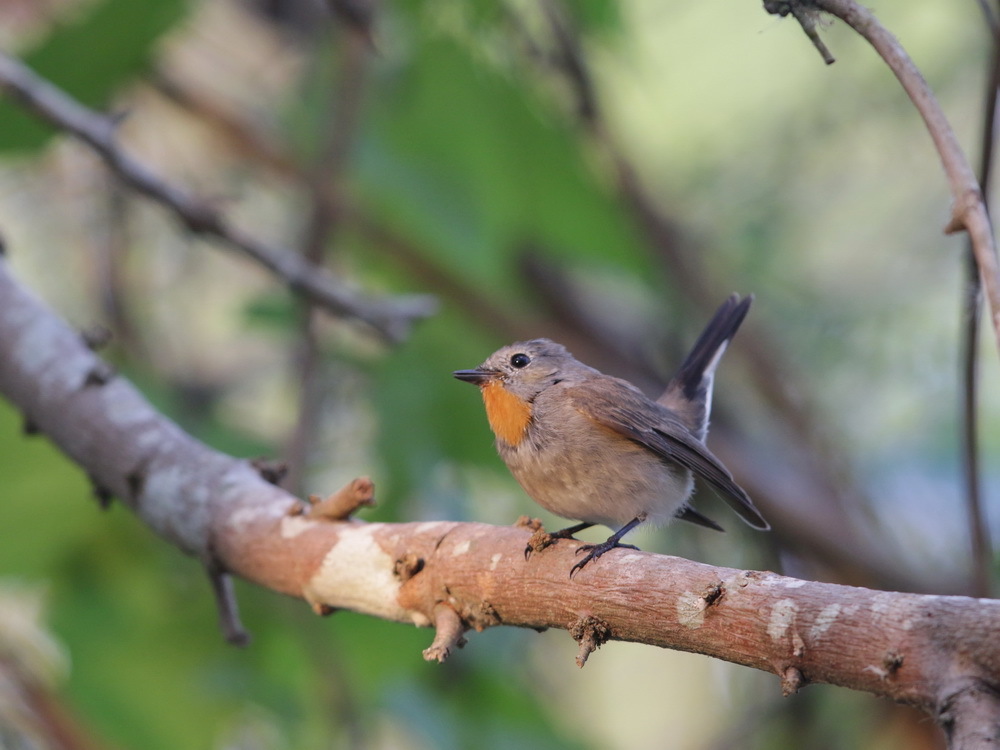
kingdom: Animalia
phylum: Chordata
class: Aves
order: Passeriformes
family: Muscicapidae
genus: Ficedula
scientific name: Ficedula albicilla
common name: Taiga flycatcher
